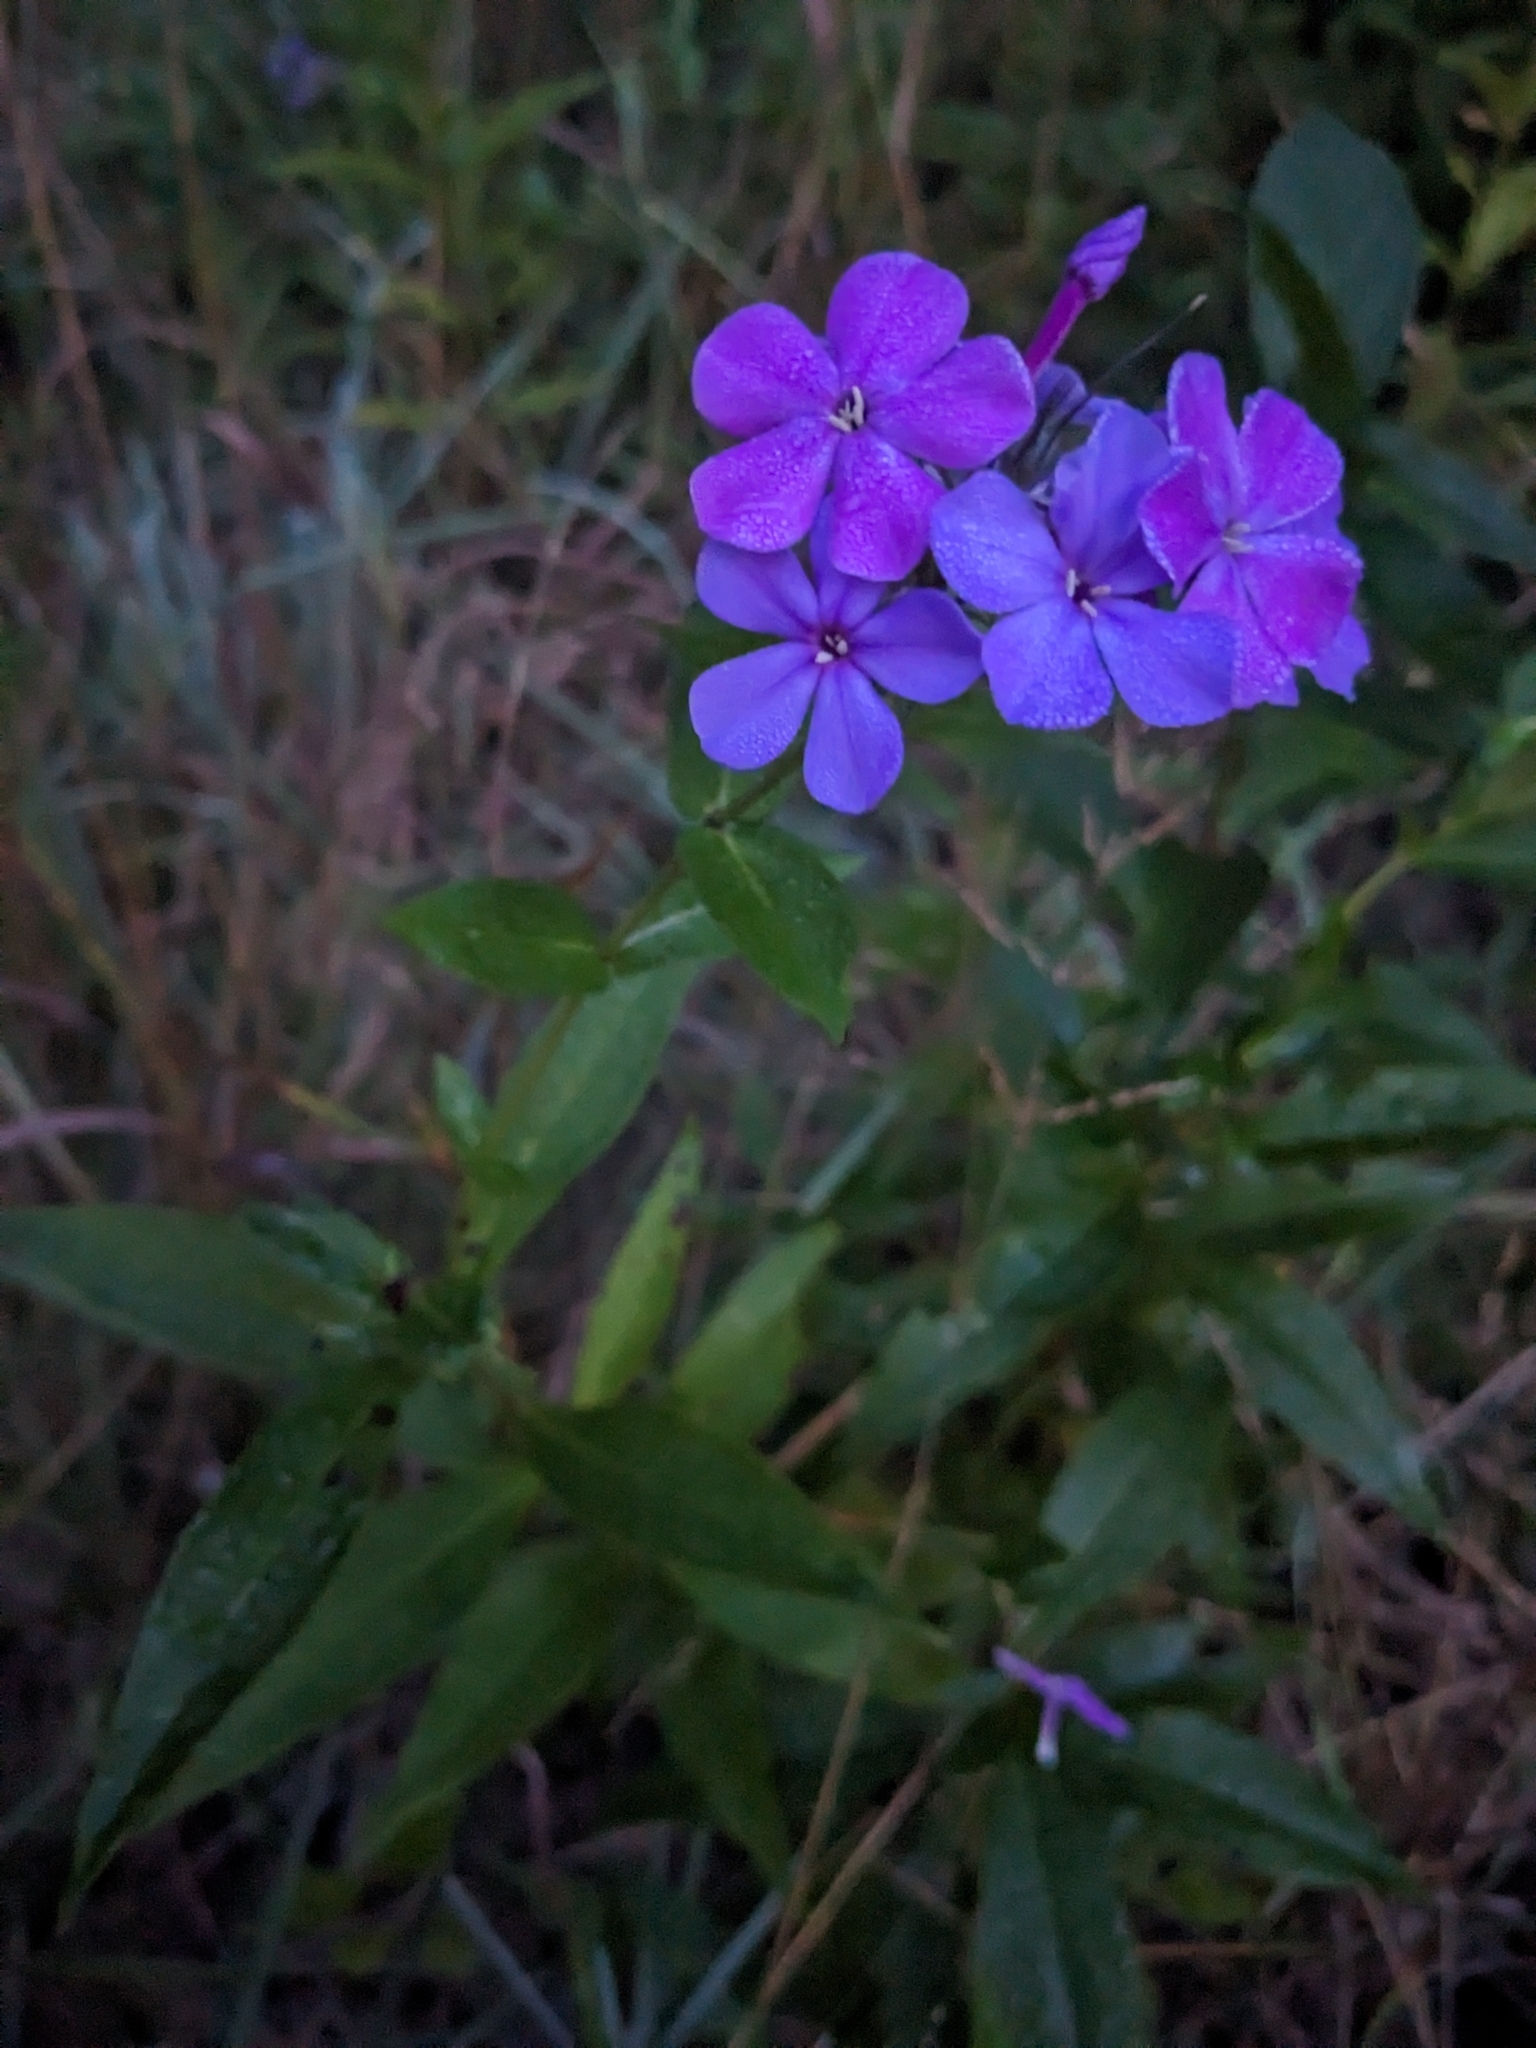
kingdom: Plantae
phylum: Tracheophyta
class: Magnoliopsida
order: Ericales
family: Polemoniaceae
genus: Phlox
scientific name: Phlox paniculata
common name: Fall phlox
